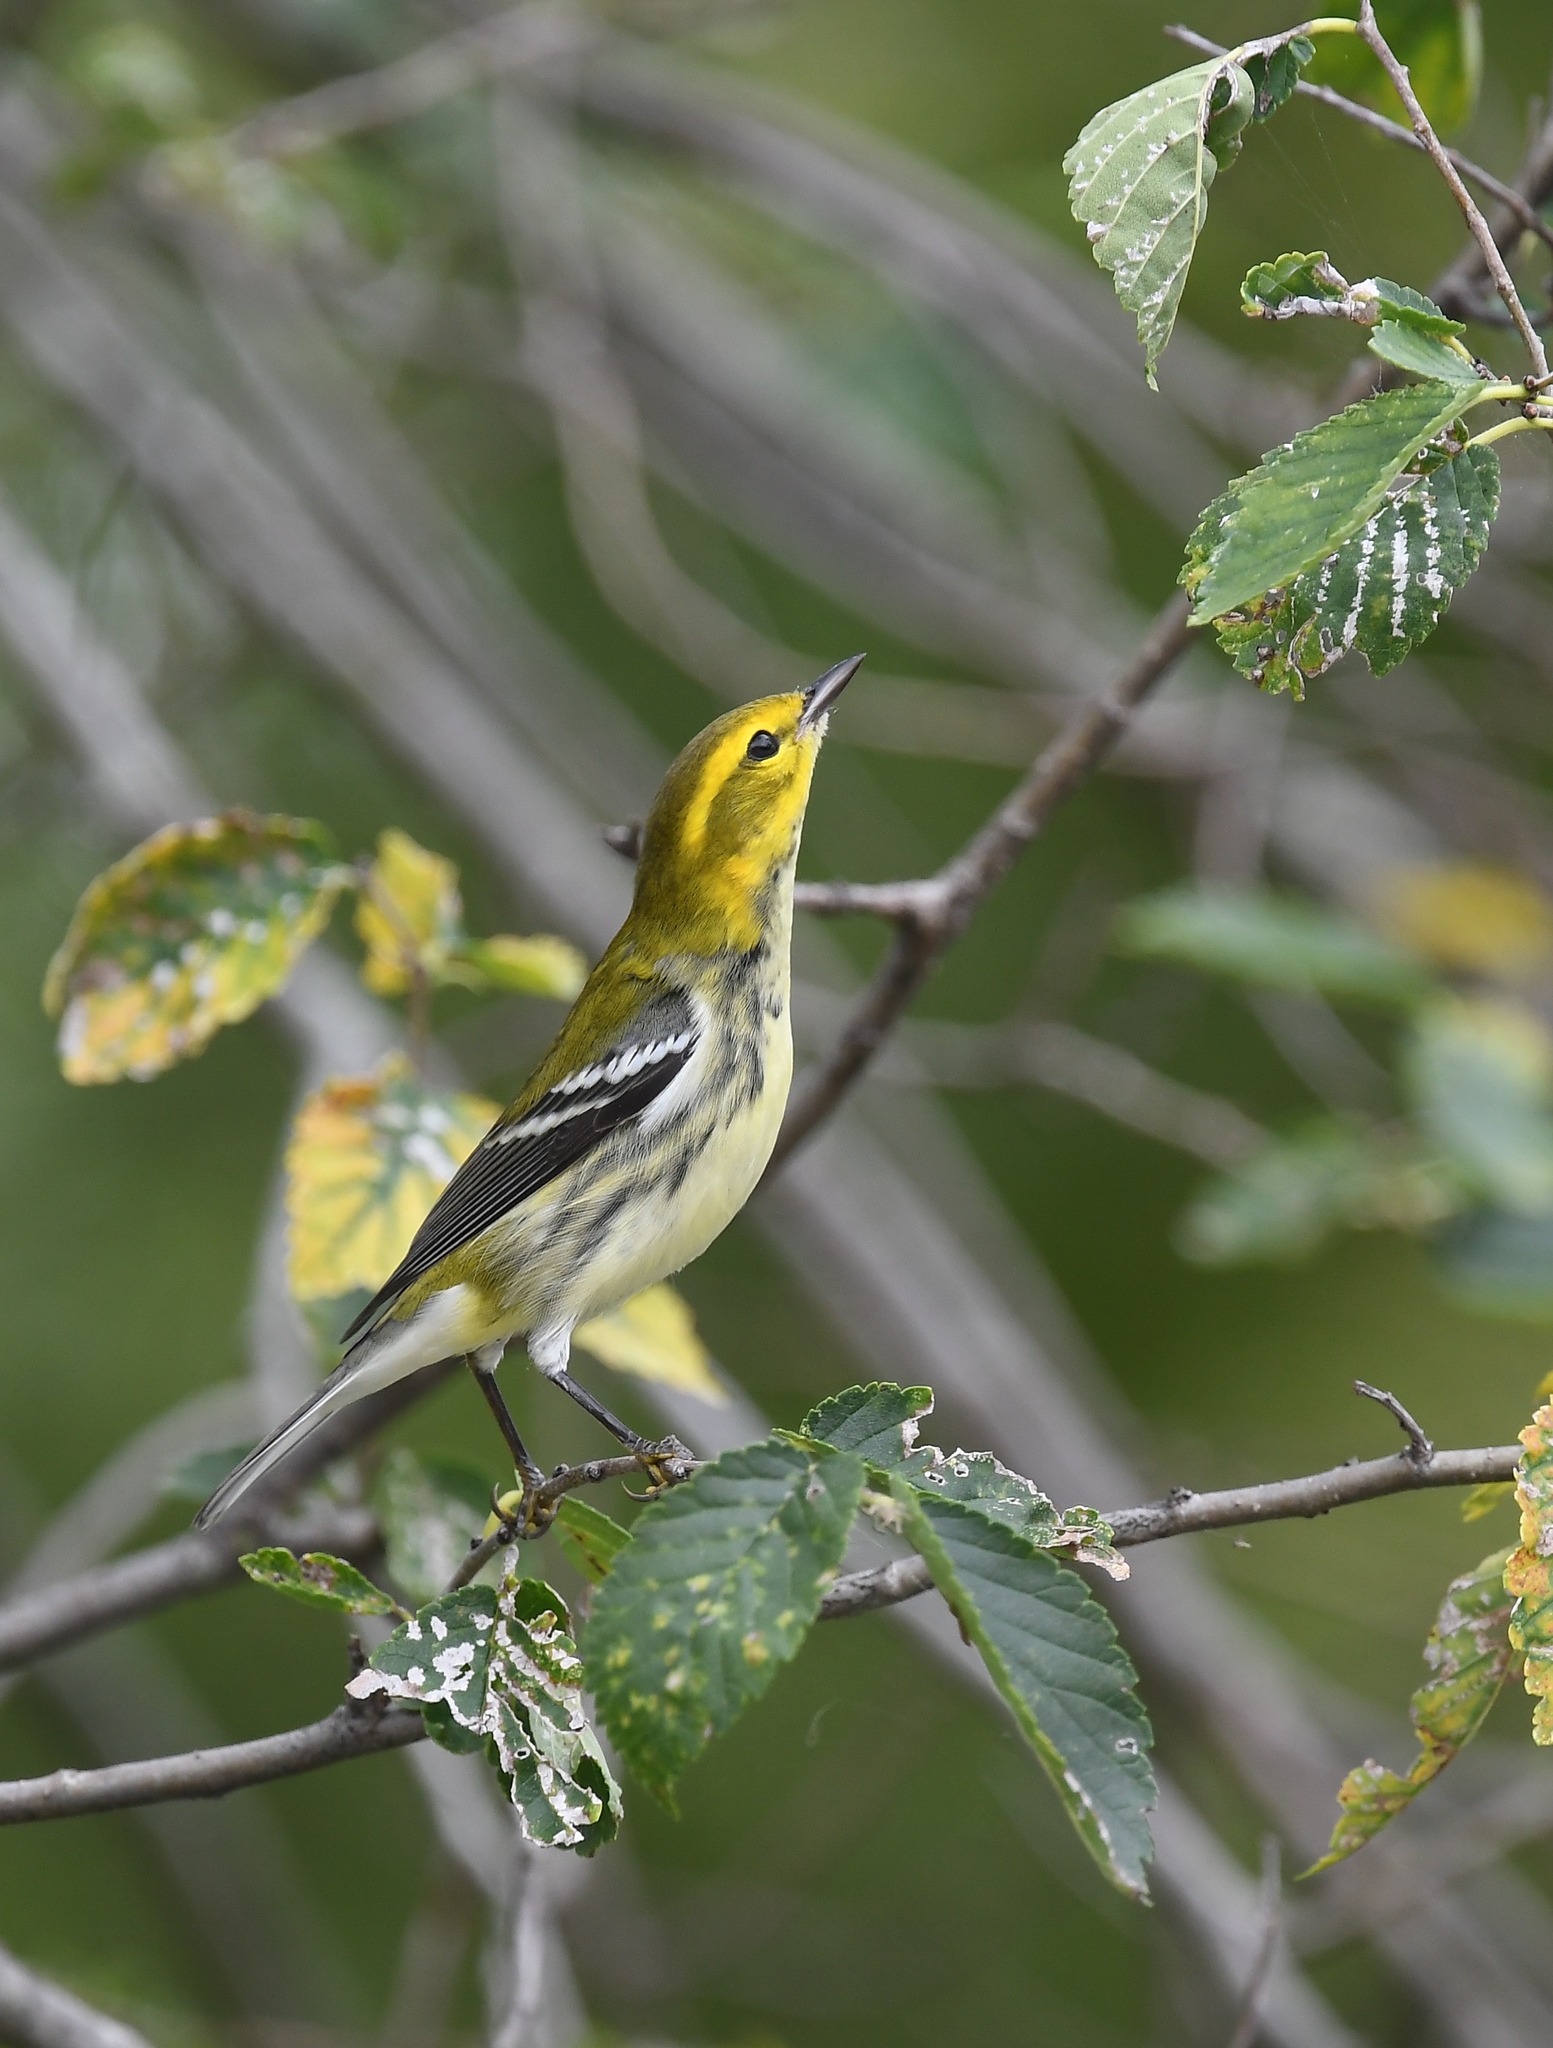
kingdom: Animalia
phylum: Chordata
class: Aves
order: Passeriformes
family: Parulidae
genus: Setophaga
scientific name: Setophaga virens
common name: Black-throated green warbler
